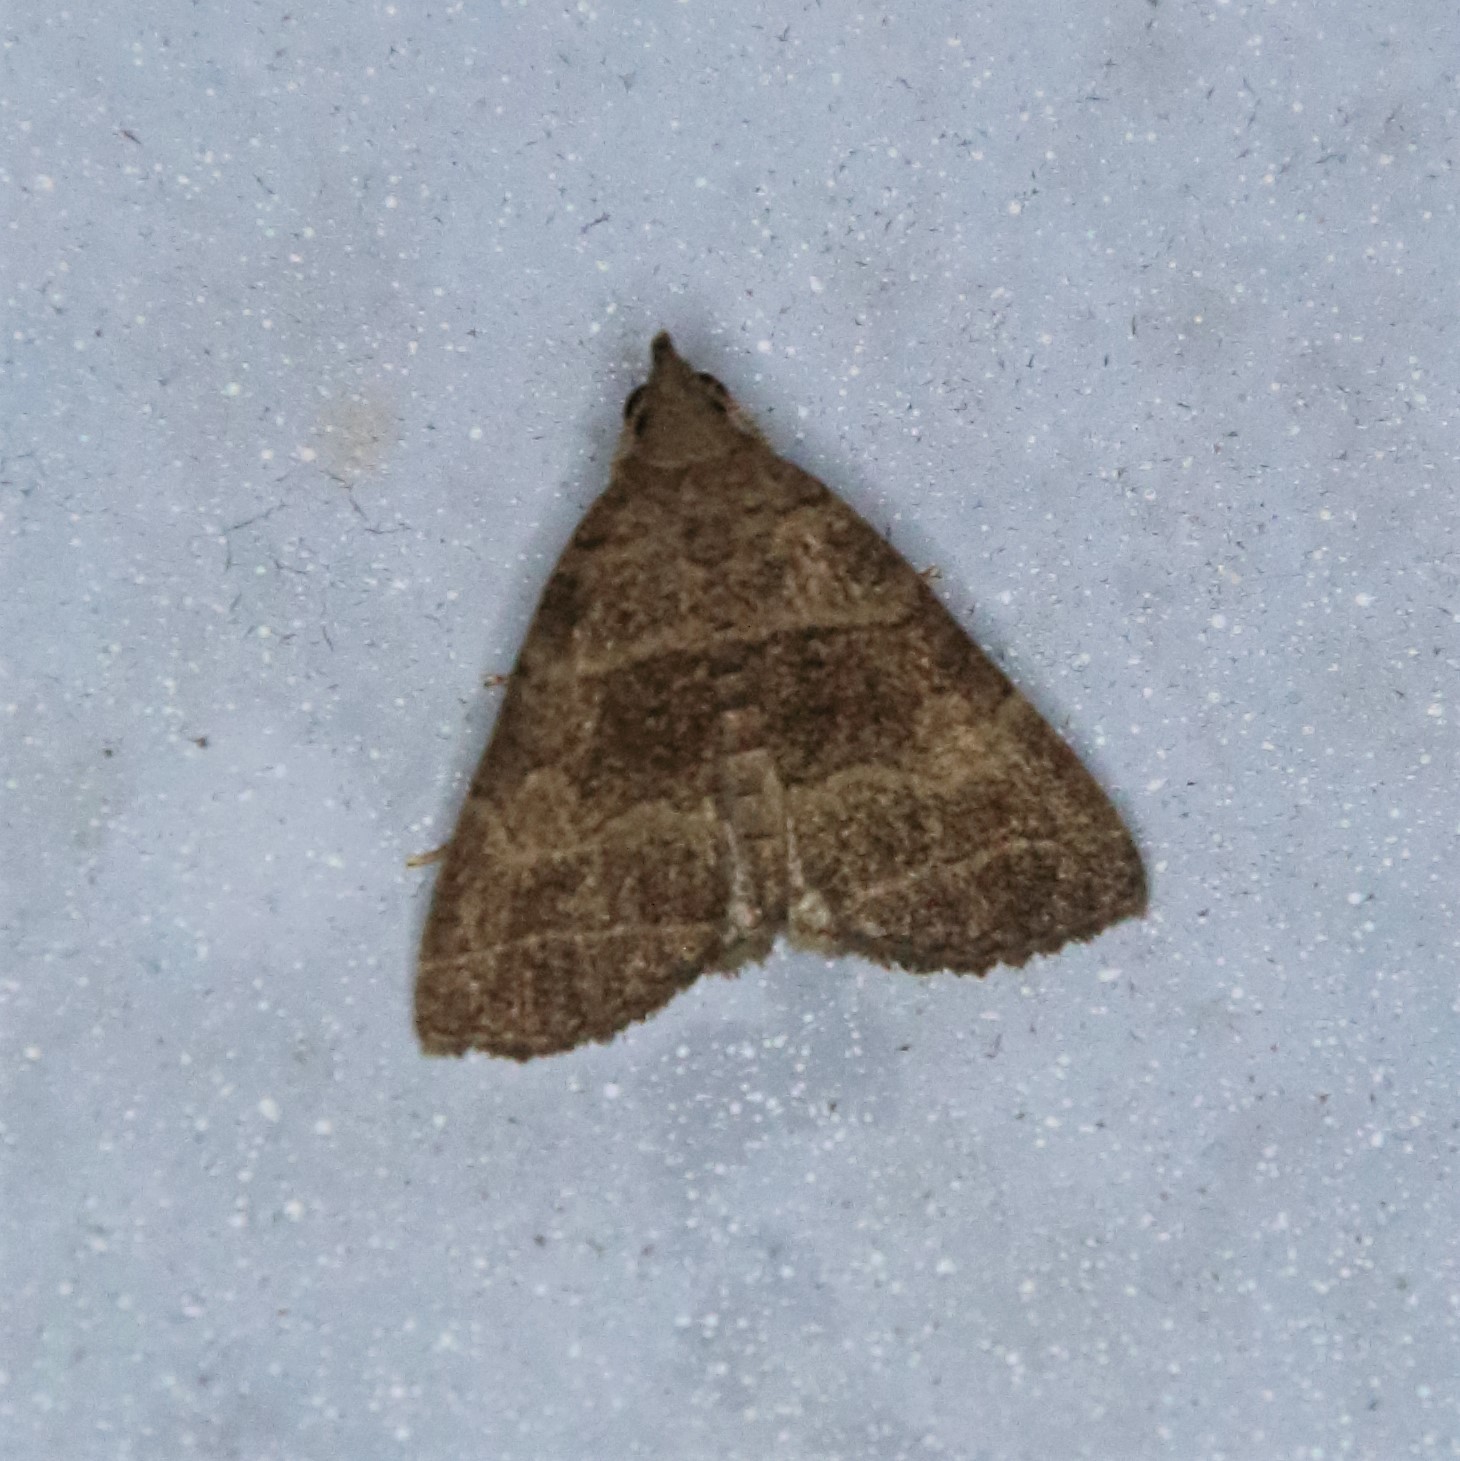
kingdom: Animalia
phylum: Arthropoda
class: Insecta
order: Lepidoptera
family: Erebidae
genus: Herminia
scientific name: Herminia annulata
